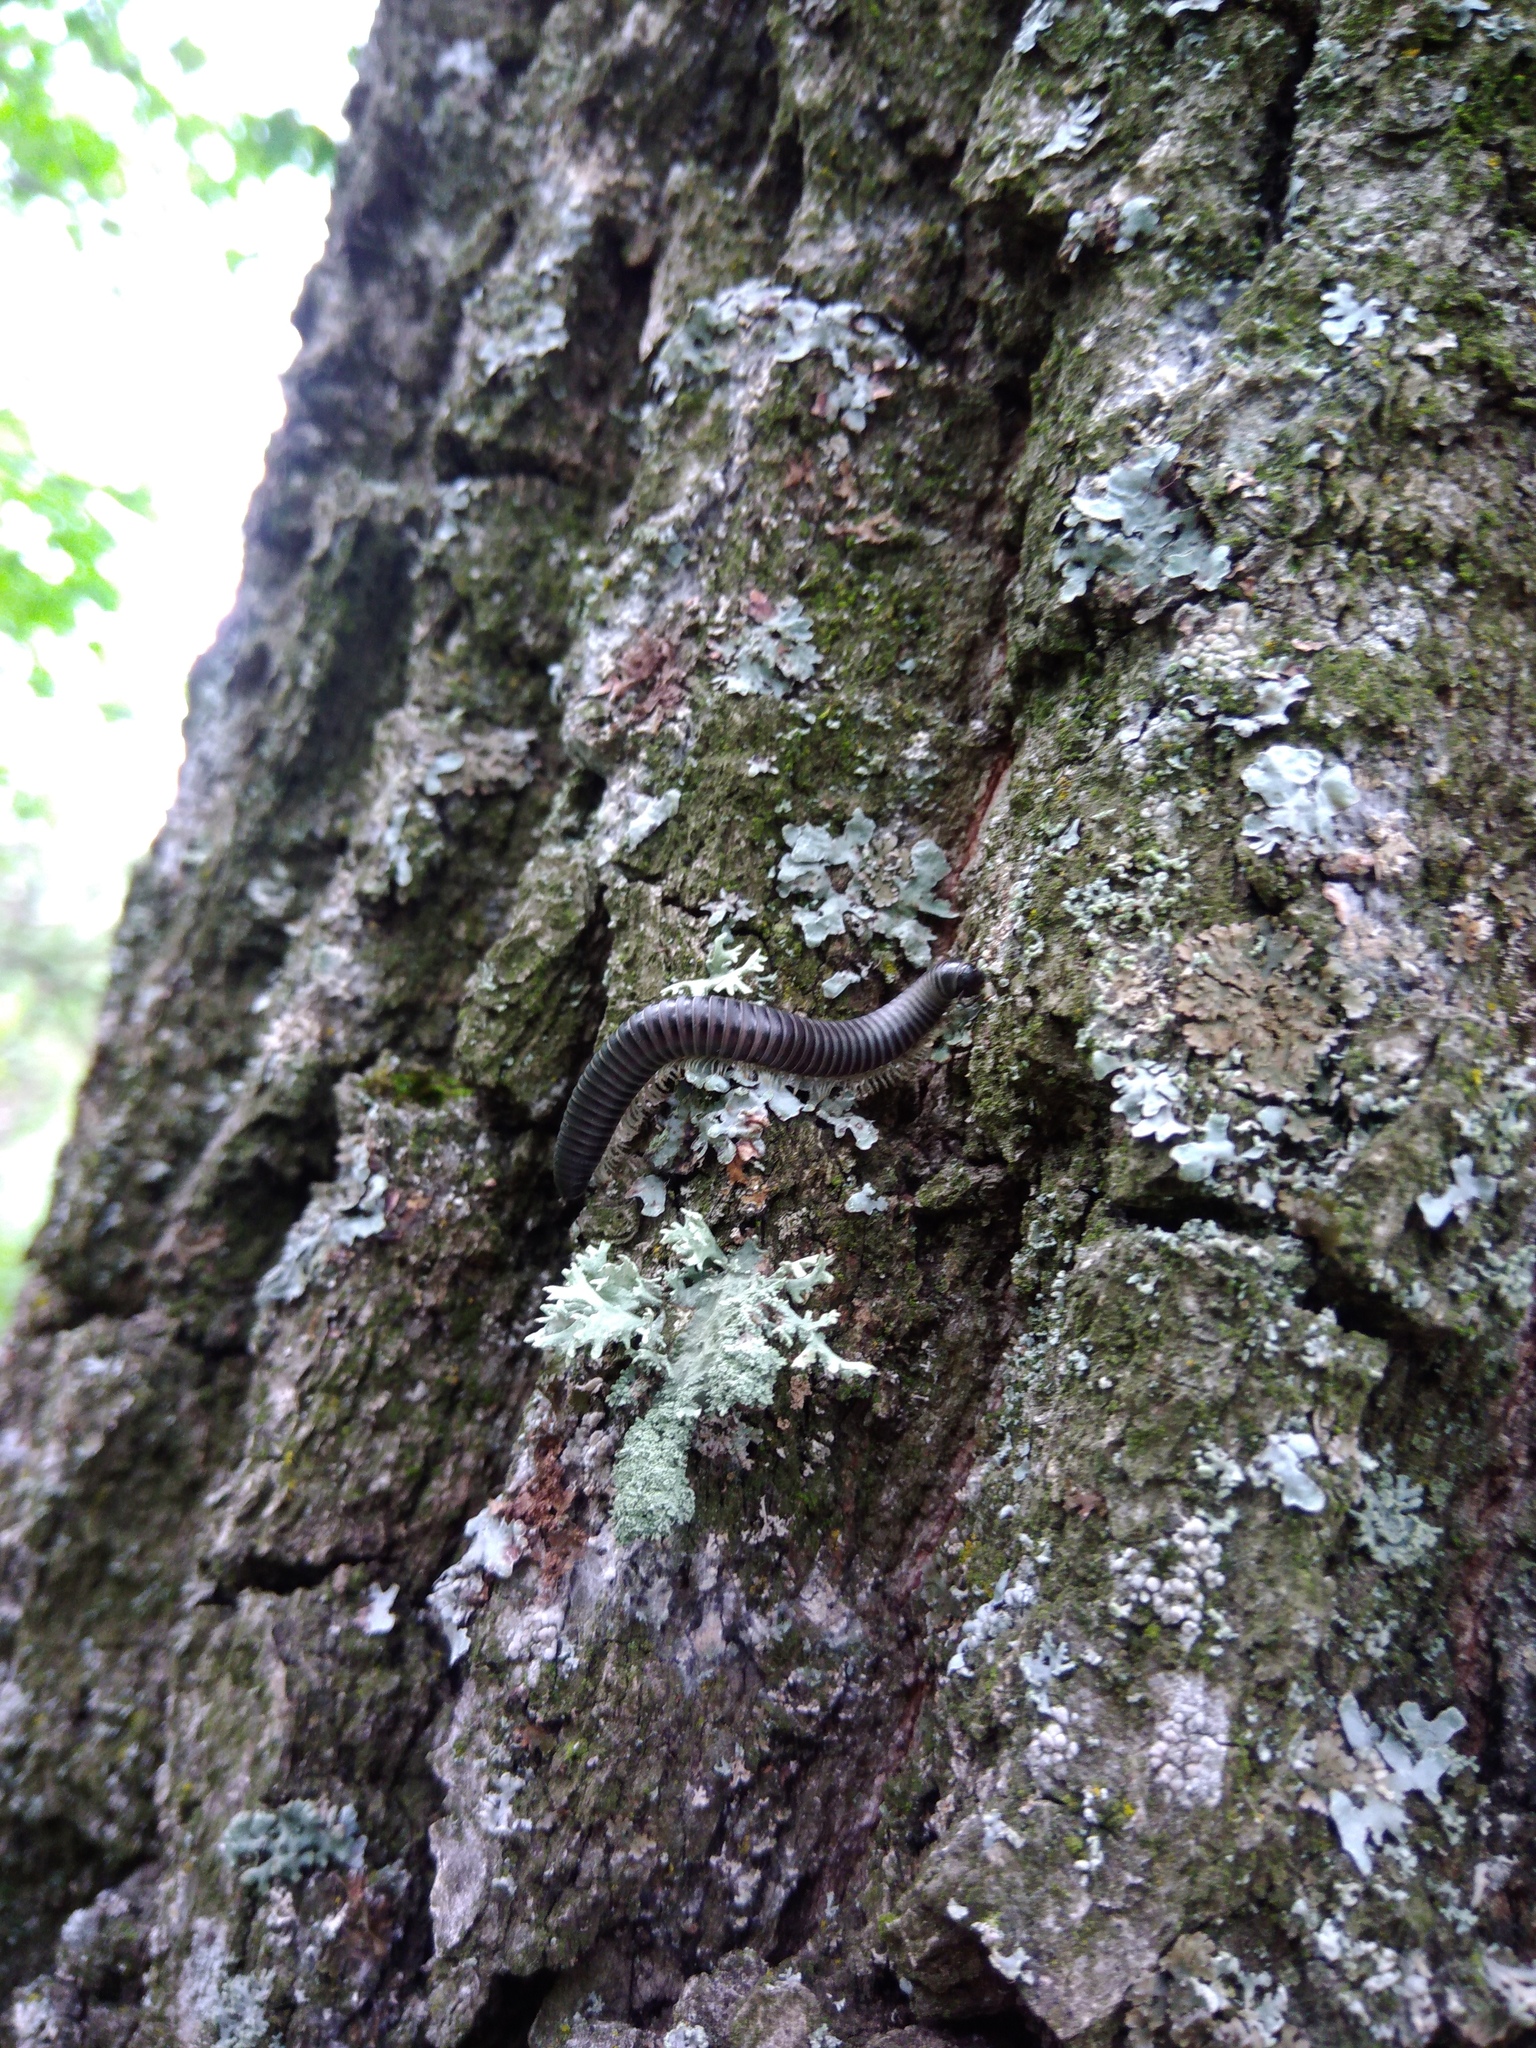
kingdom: Animalia
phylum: Arthropoda
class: Diplopoda
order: Julida
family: Julidae
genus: Rossiulus
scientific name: Rossiulus kessleri
